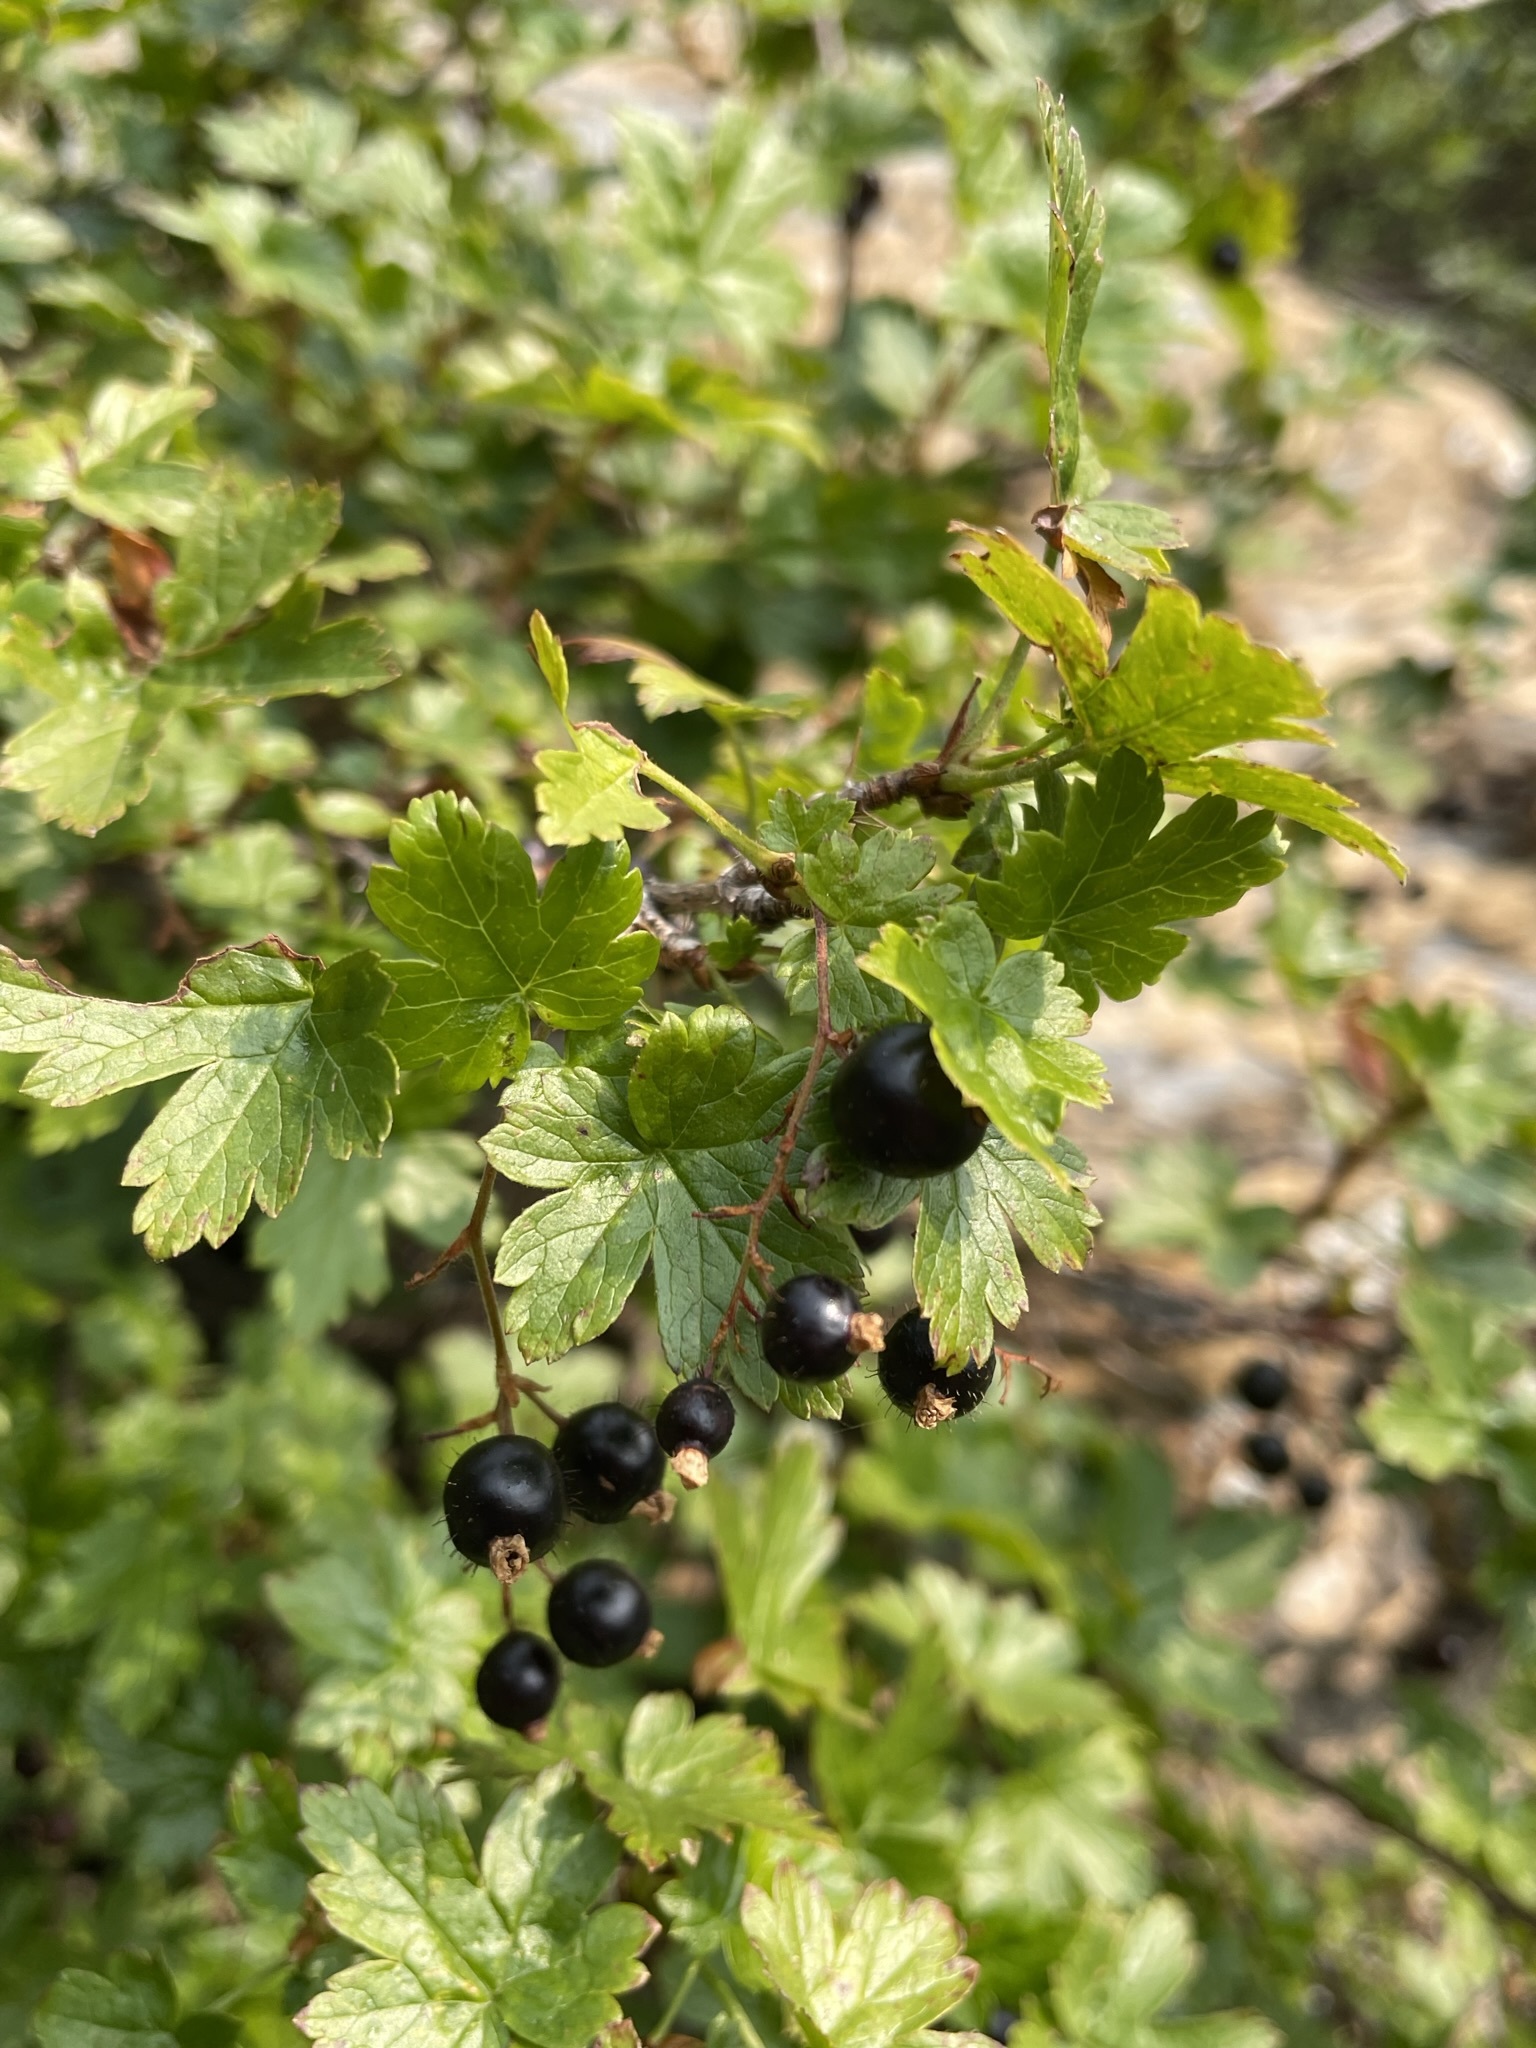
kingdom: Plantae
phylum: Tracheophyta
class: Magnoliopsida
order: Saxifragales
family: Grossulariaceae
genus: Ribes
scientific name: Ribes lacustre
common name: Black gooseberry
